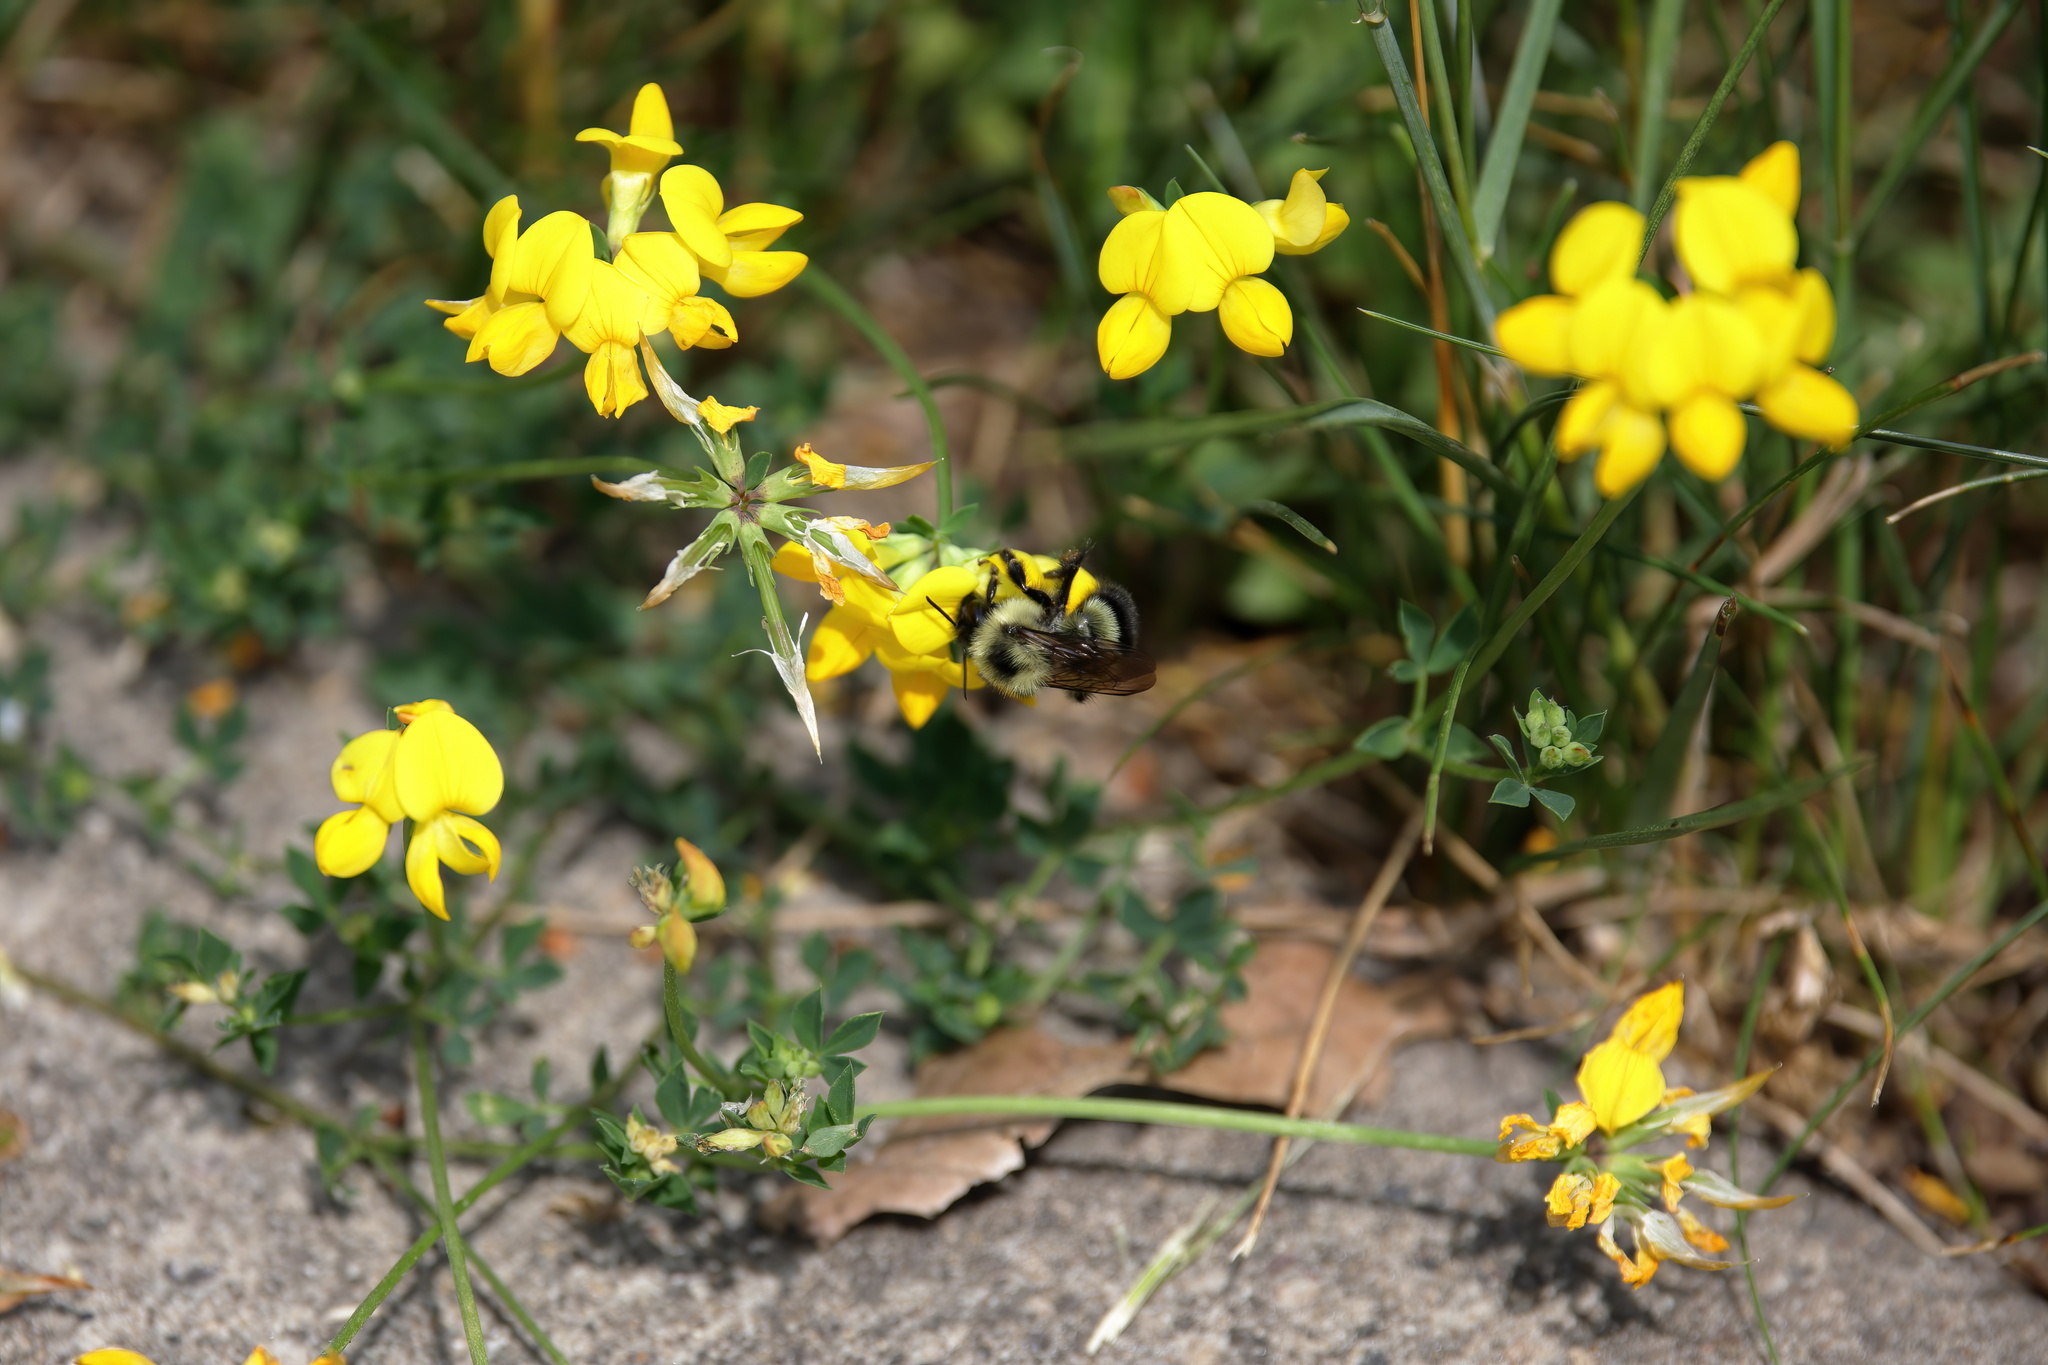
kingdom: Plantae
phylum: Tracheophyta
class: Magnoliopsida
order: Fabales
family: Fabaceae
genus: Lotus
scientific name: Lotus corniculatus
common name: Common bird's-foot-trefoil
